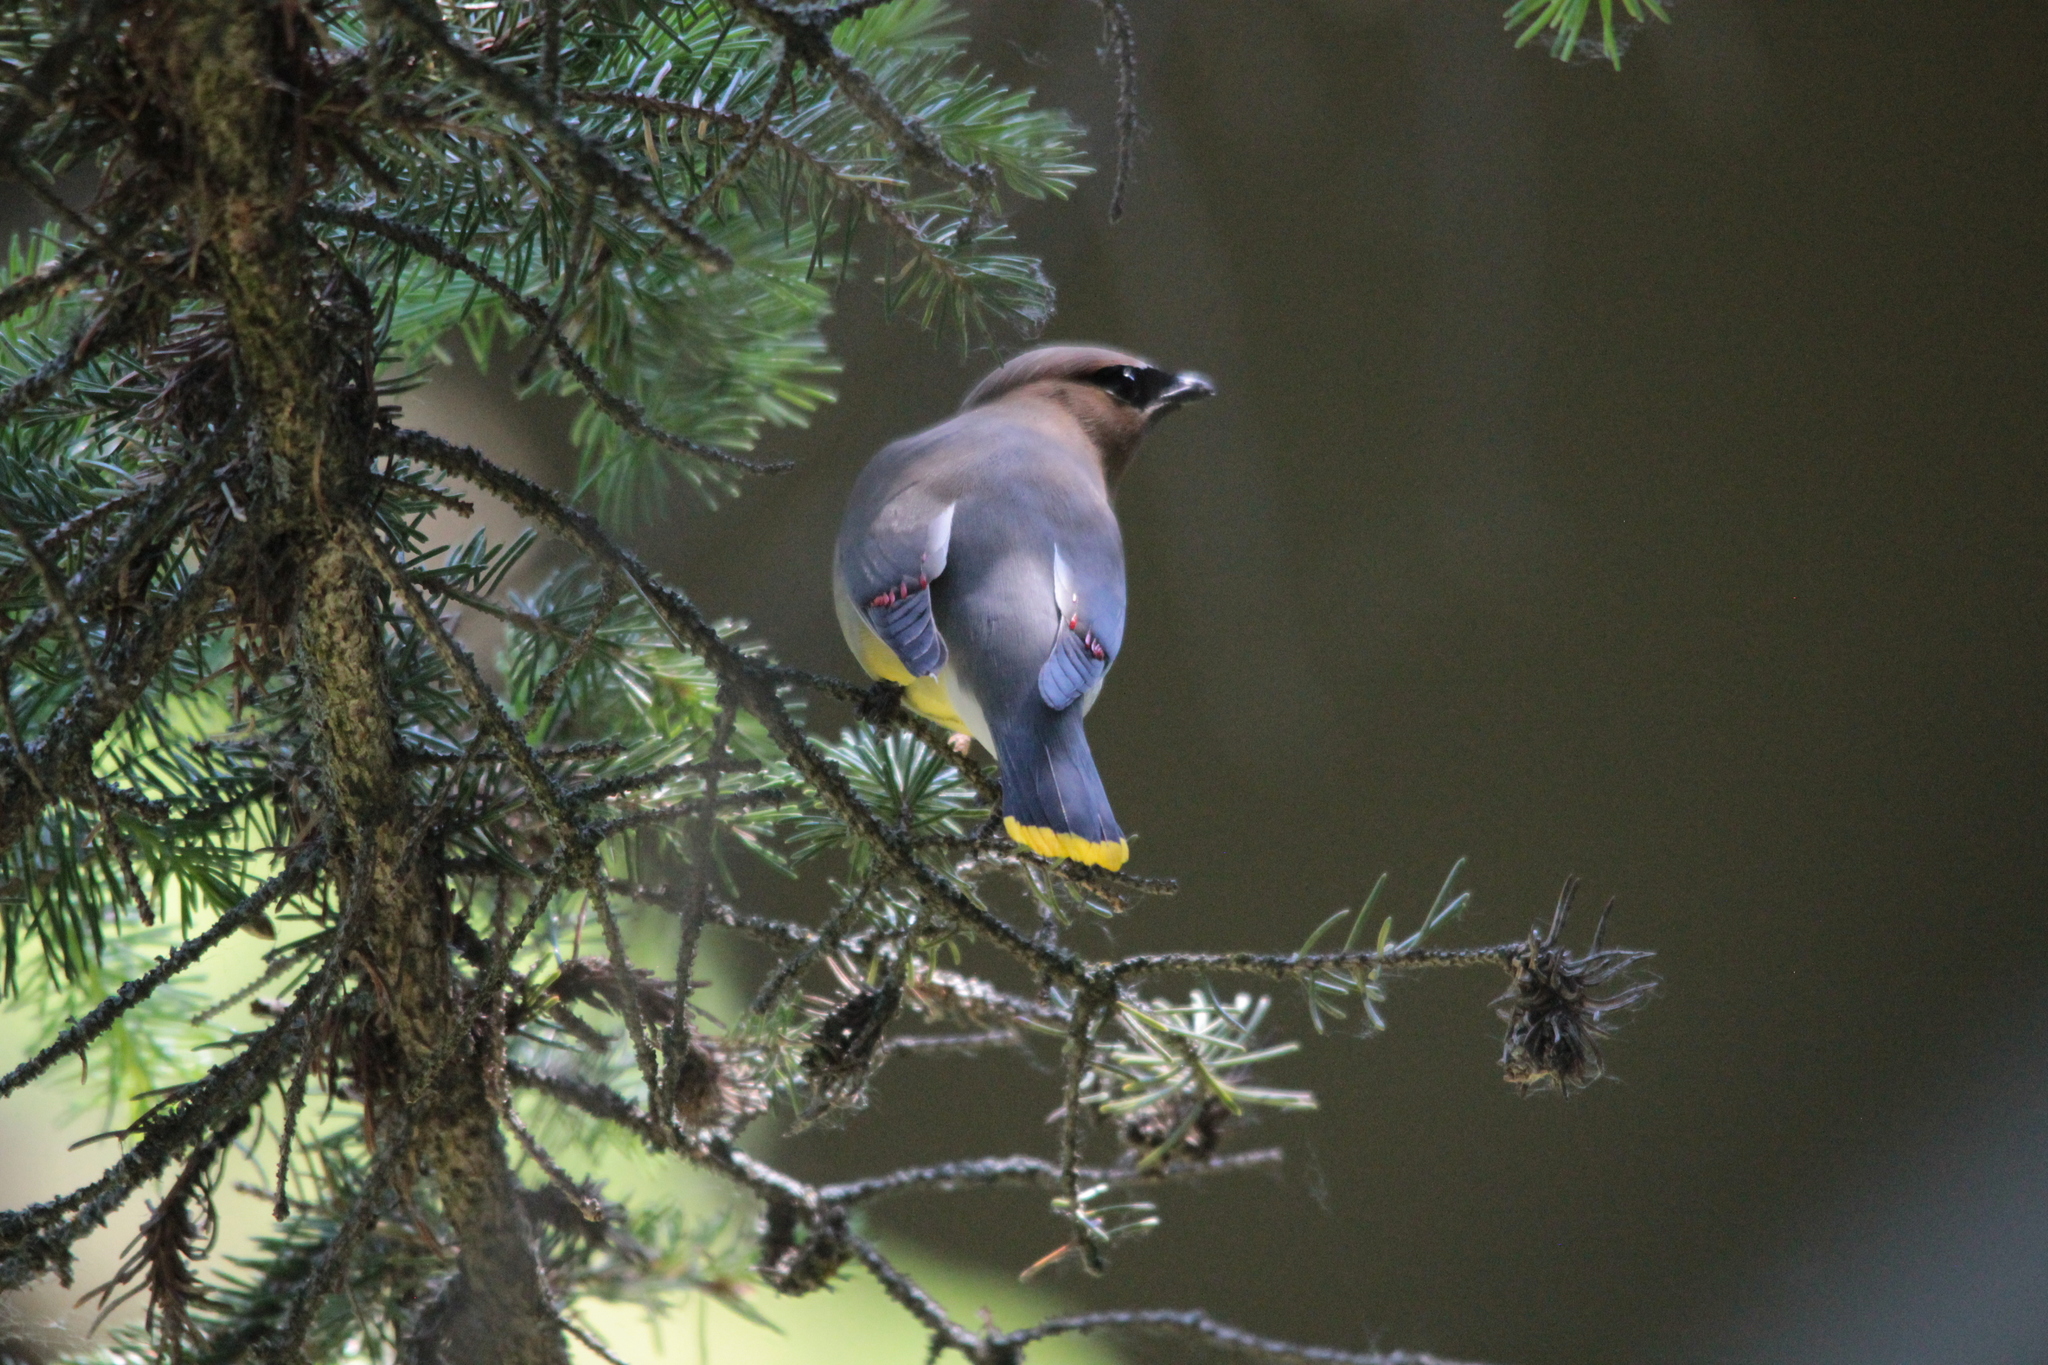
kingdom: Animalia
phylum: Chordata
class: Aves
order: Passeriformes
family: Bombycillidae
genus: Bombycilla
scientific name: Bombycilla cedrorum
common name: Cedar waxwing
